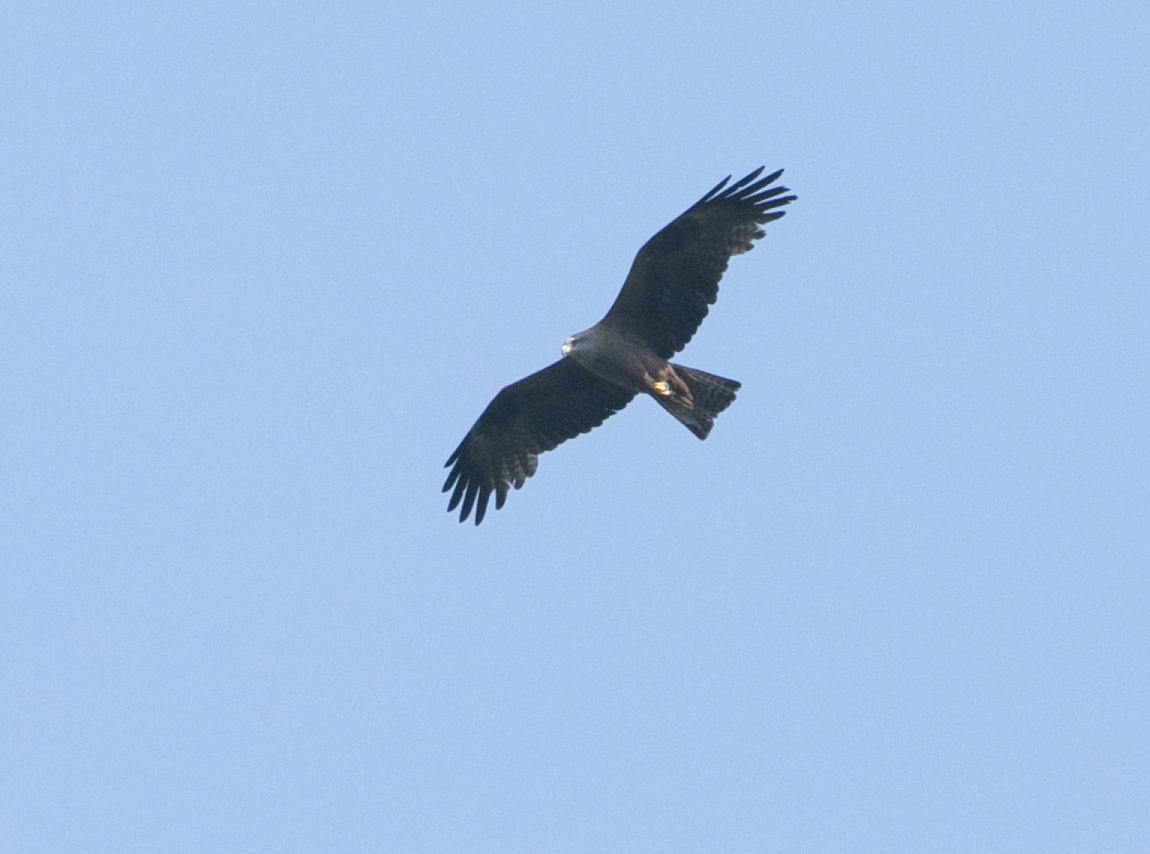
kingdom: Animalia
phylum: Chordata
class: Aves
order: Accipitriformes
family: Accipitridae
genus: Milvus
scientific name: Milvus migrans
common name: Black kite
